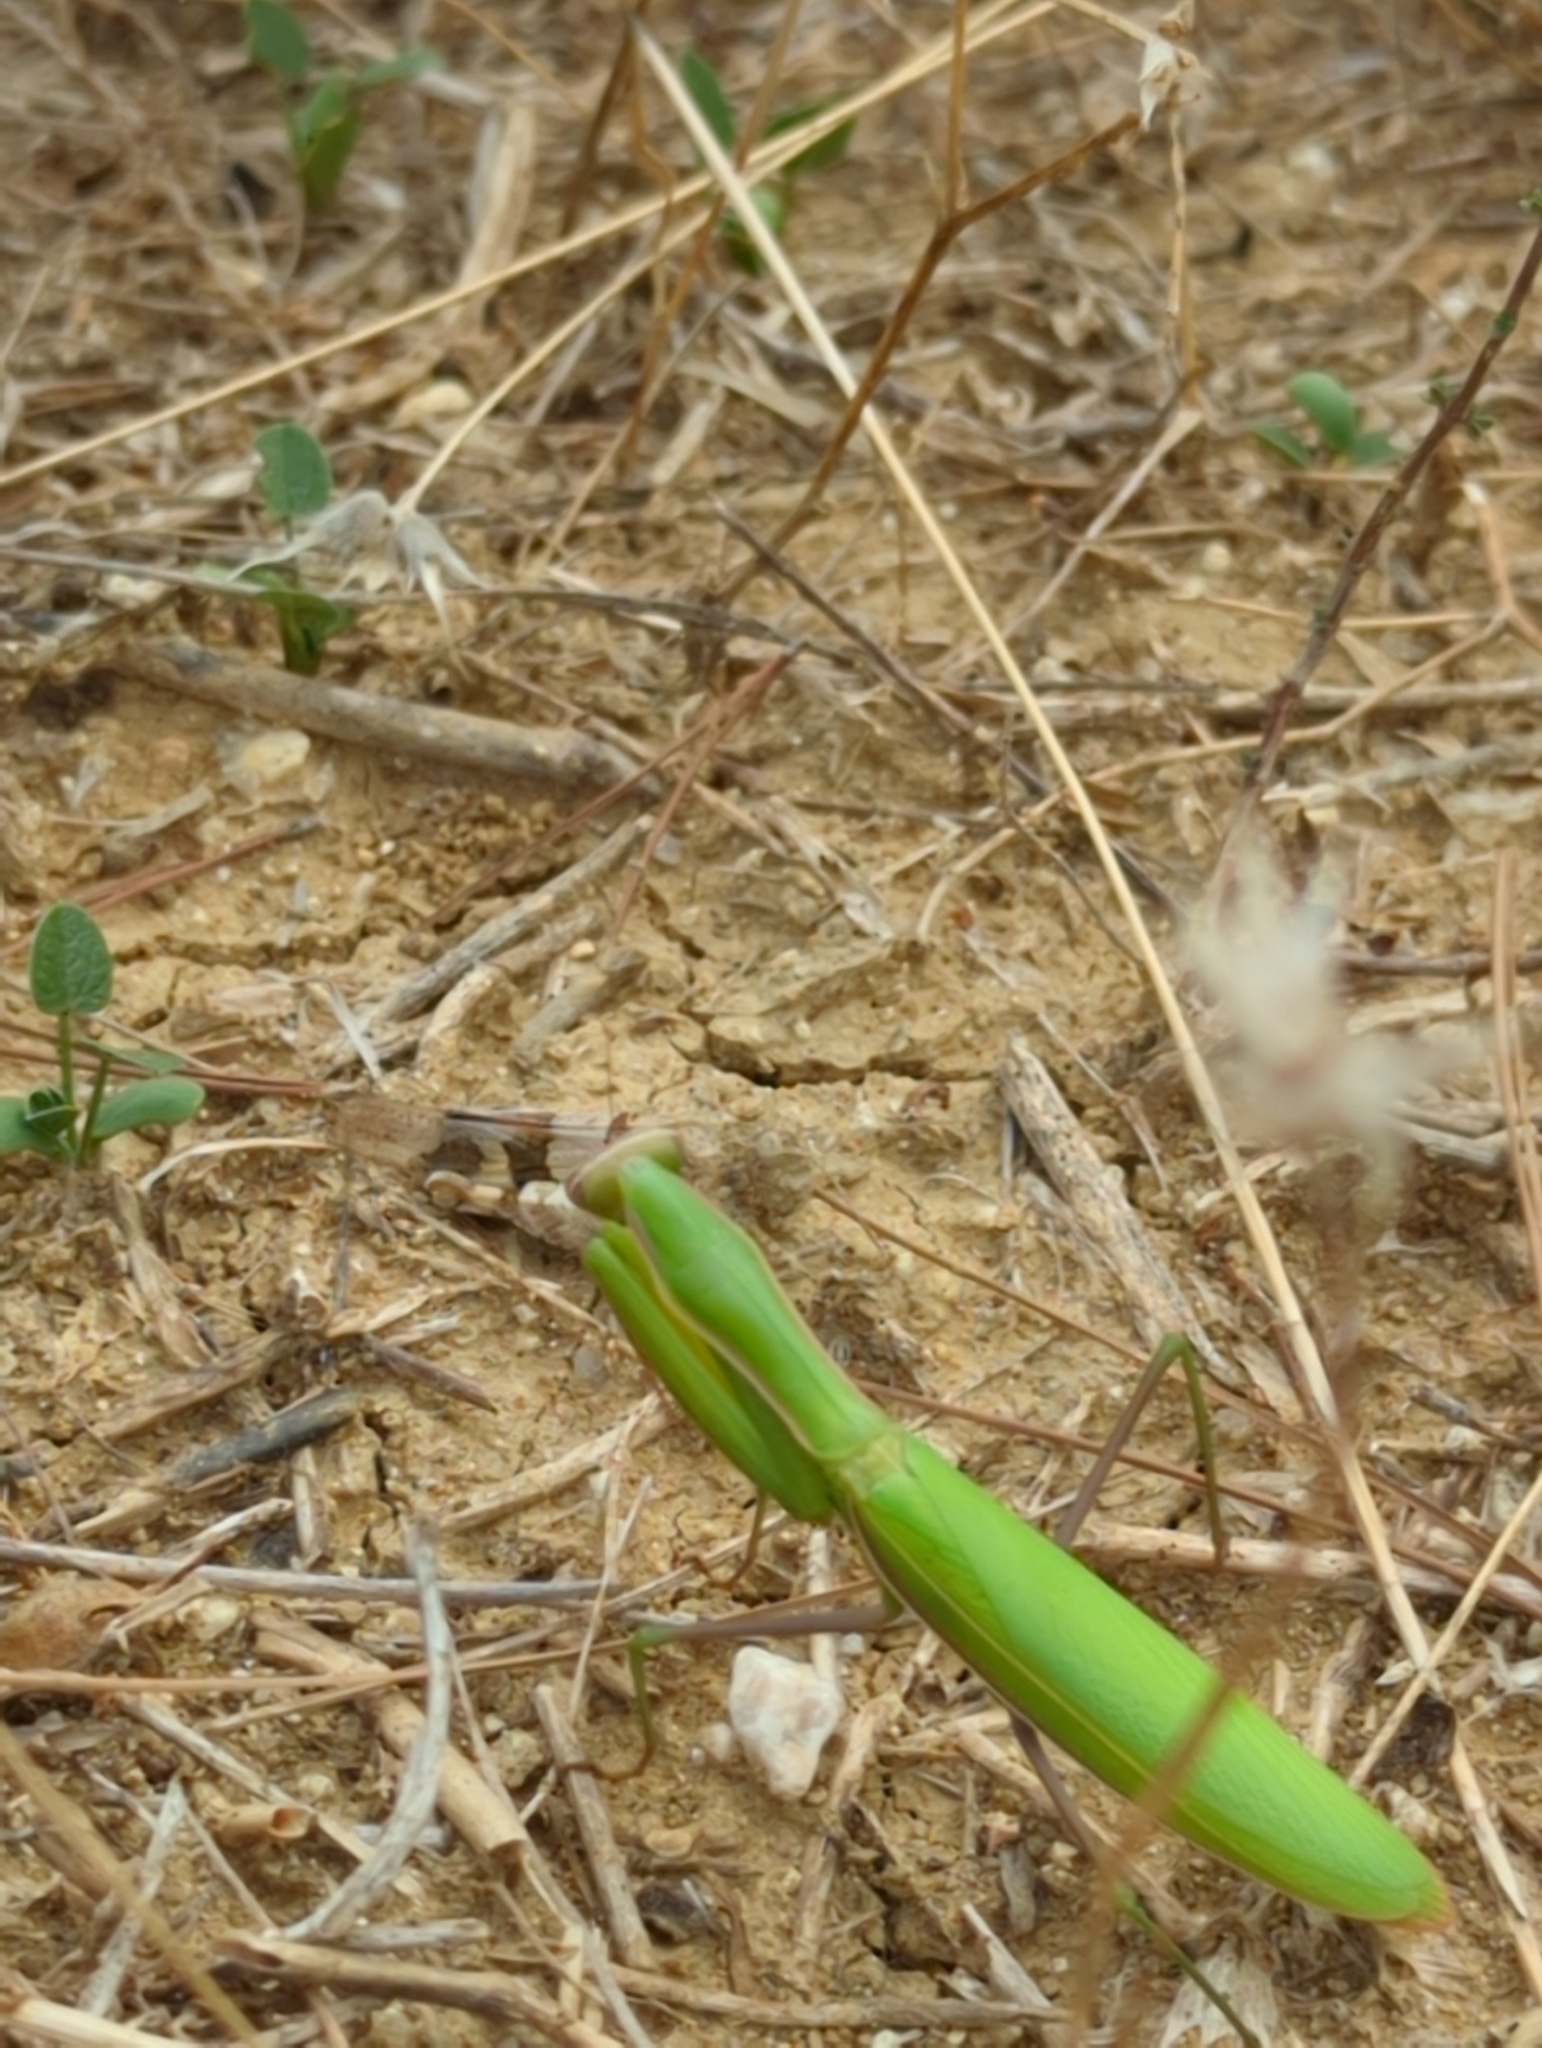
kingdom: Animalia
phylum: Arthropoda
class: Insecta
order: Mantodea
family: Mantidae
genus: Mantis
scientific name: Mantis religiosa
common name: Praying mantis
